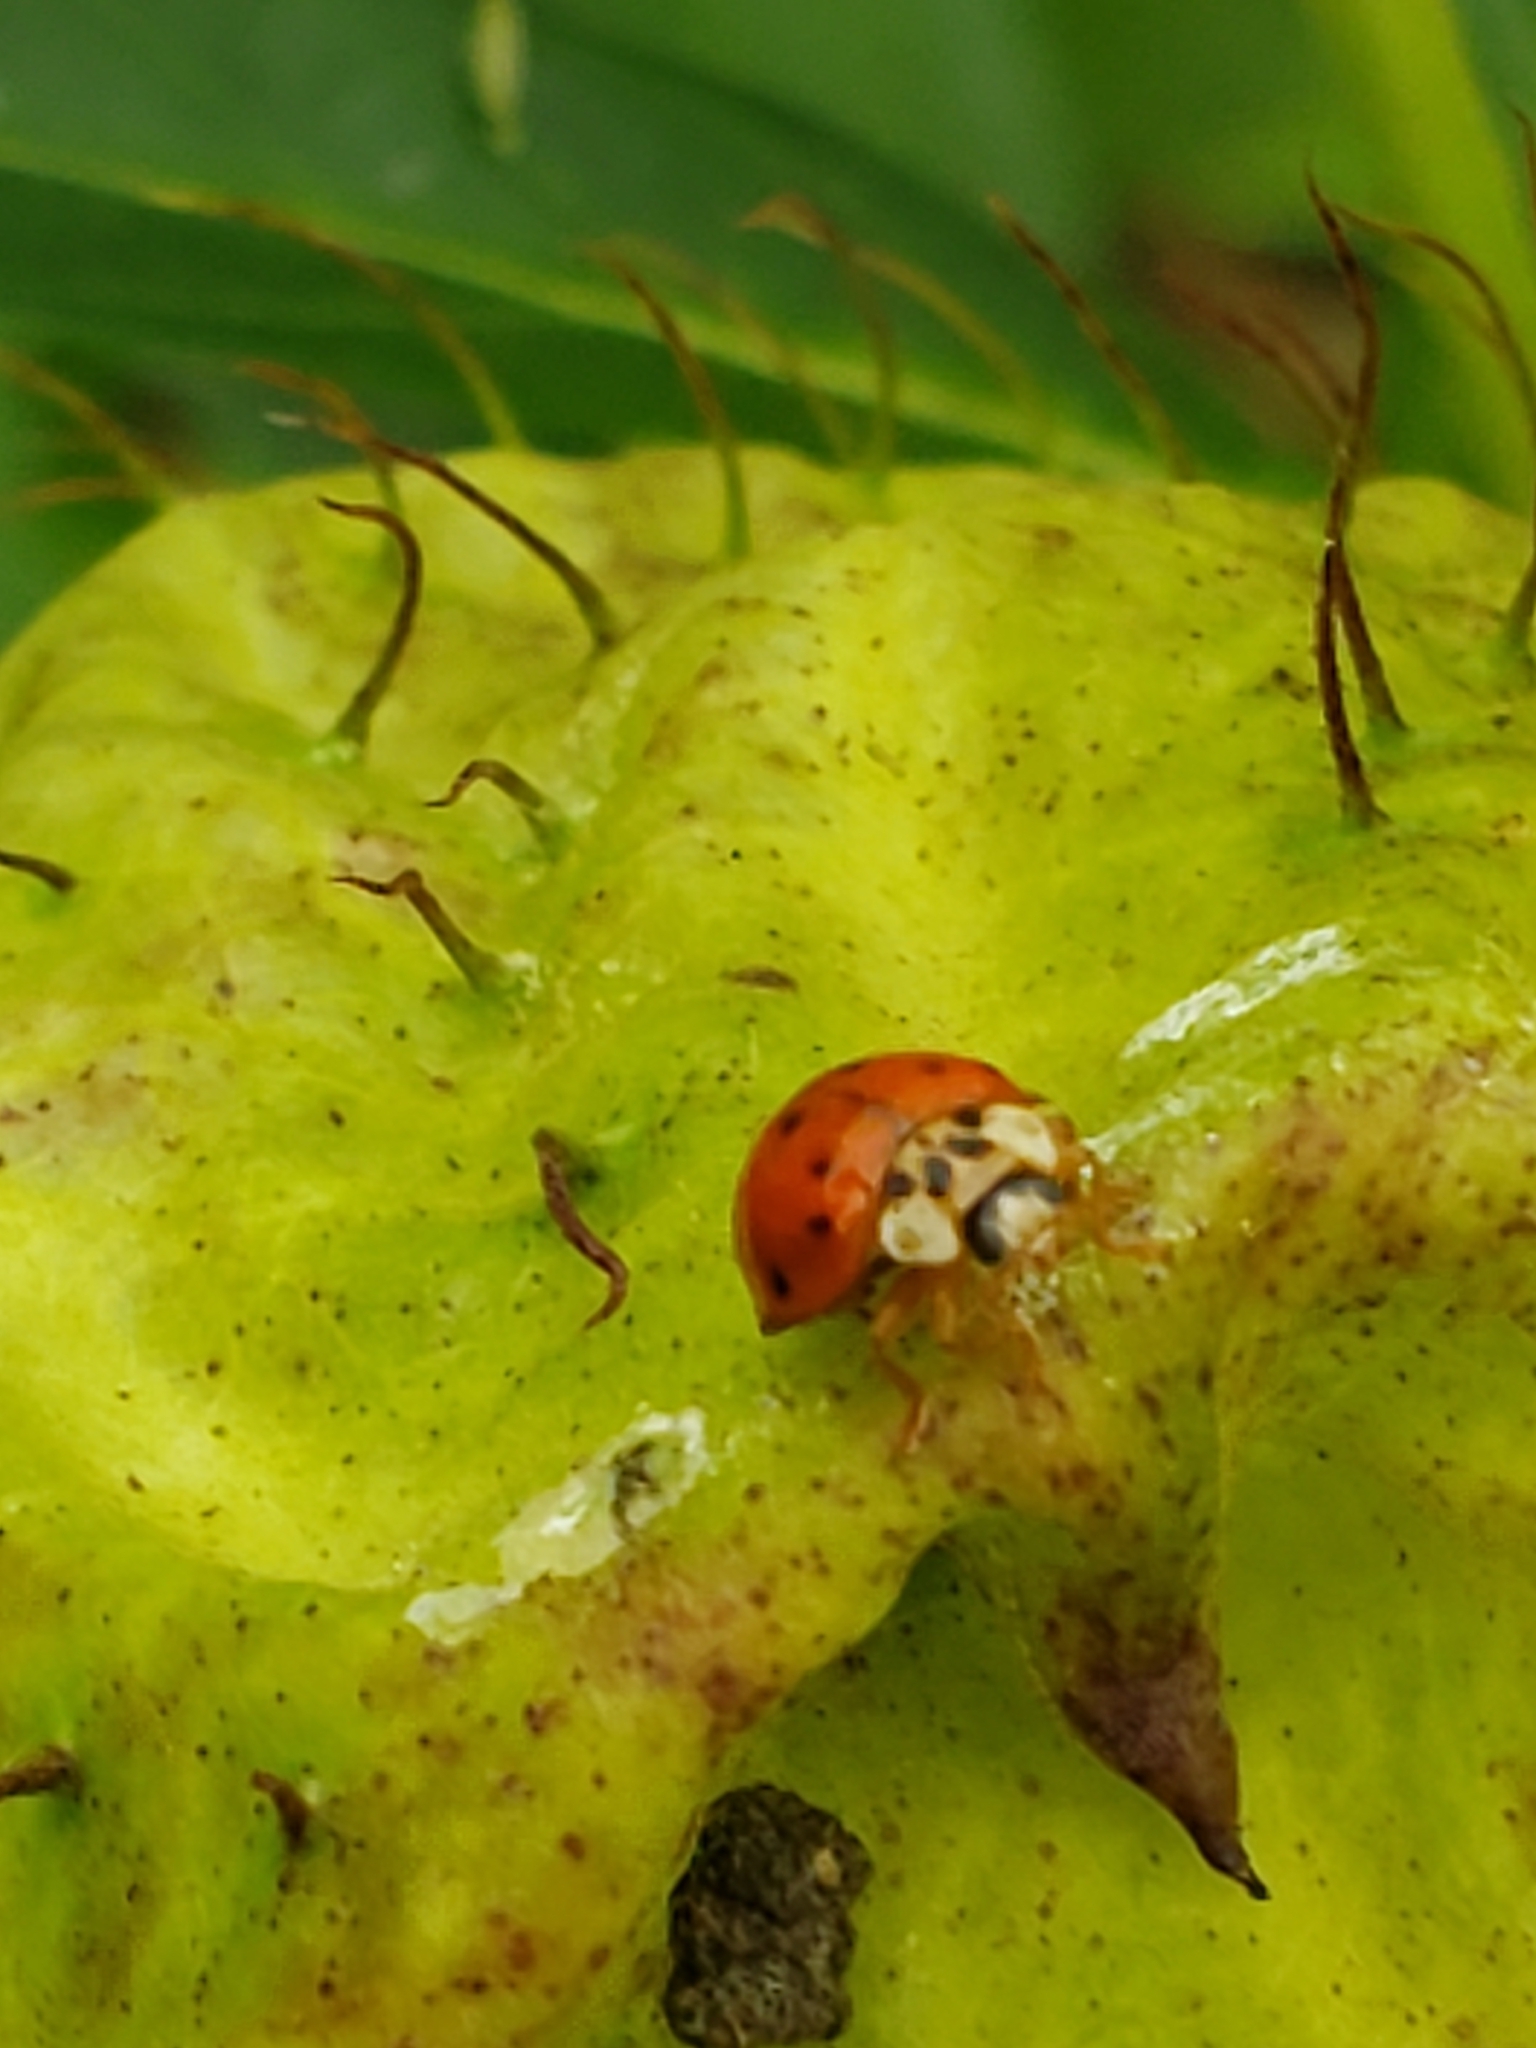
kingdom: Animalia
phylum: Arthropoda
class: Insecta
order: Coleoptera
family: Coccinellidae
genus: Harmonia
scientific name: Harmonia axyridis
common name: Harlequin ladybird
